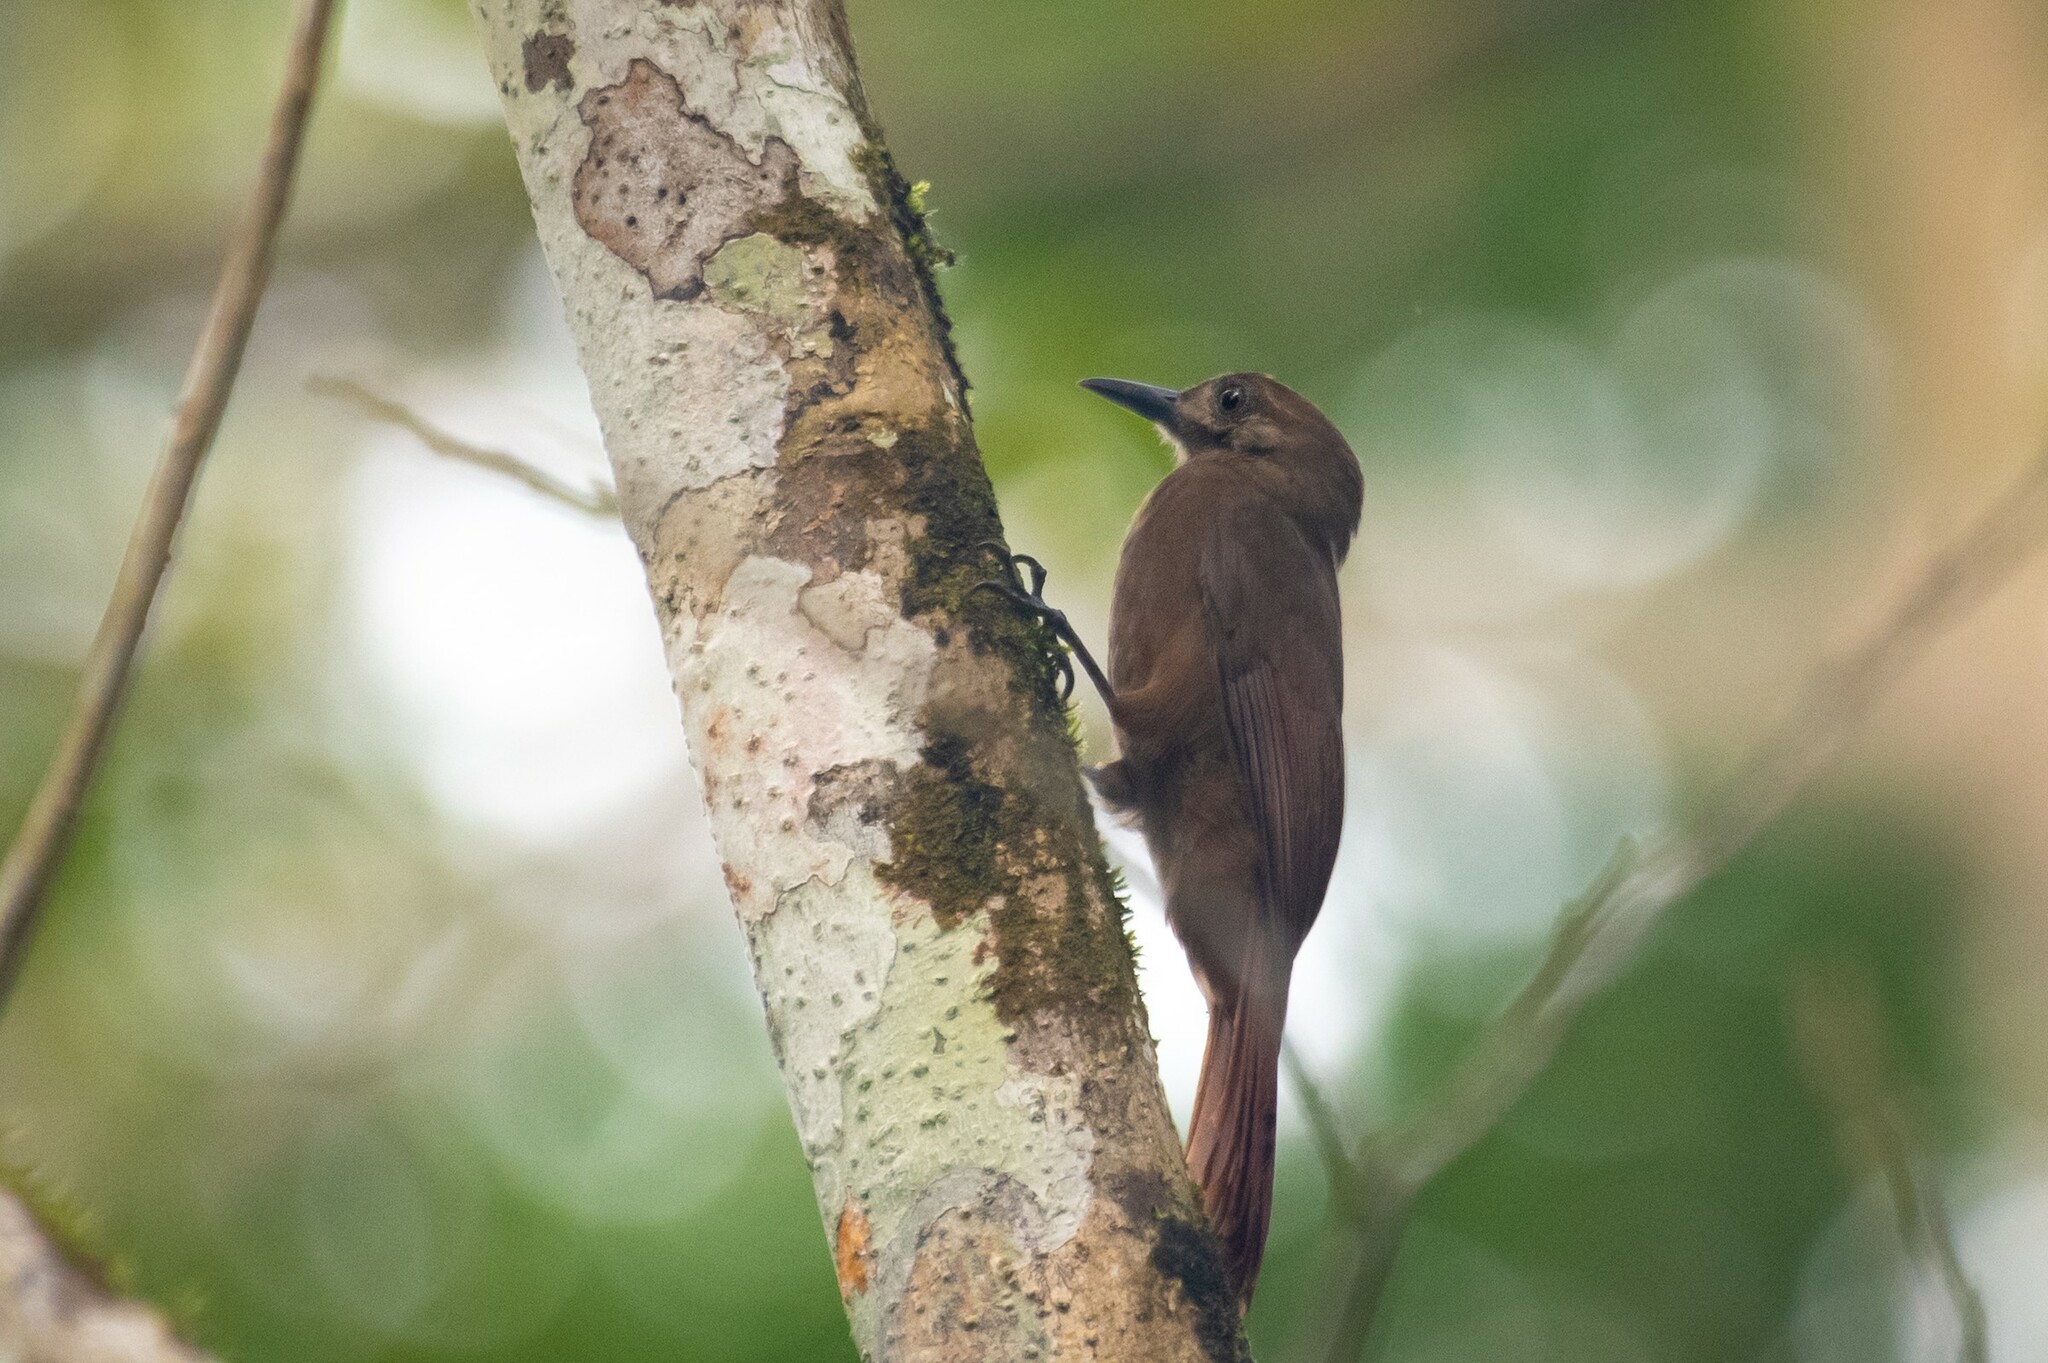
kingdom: Animalia
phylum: Chordata
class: Aves
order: Passeriformes
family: Furnariidae
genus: Dendrocincla
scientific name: Dendrocincla fuliginosa
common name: Plain-brown woodcreeper
